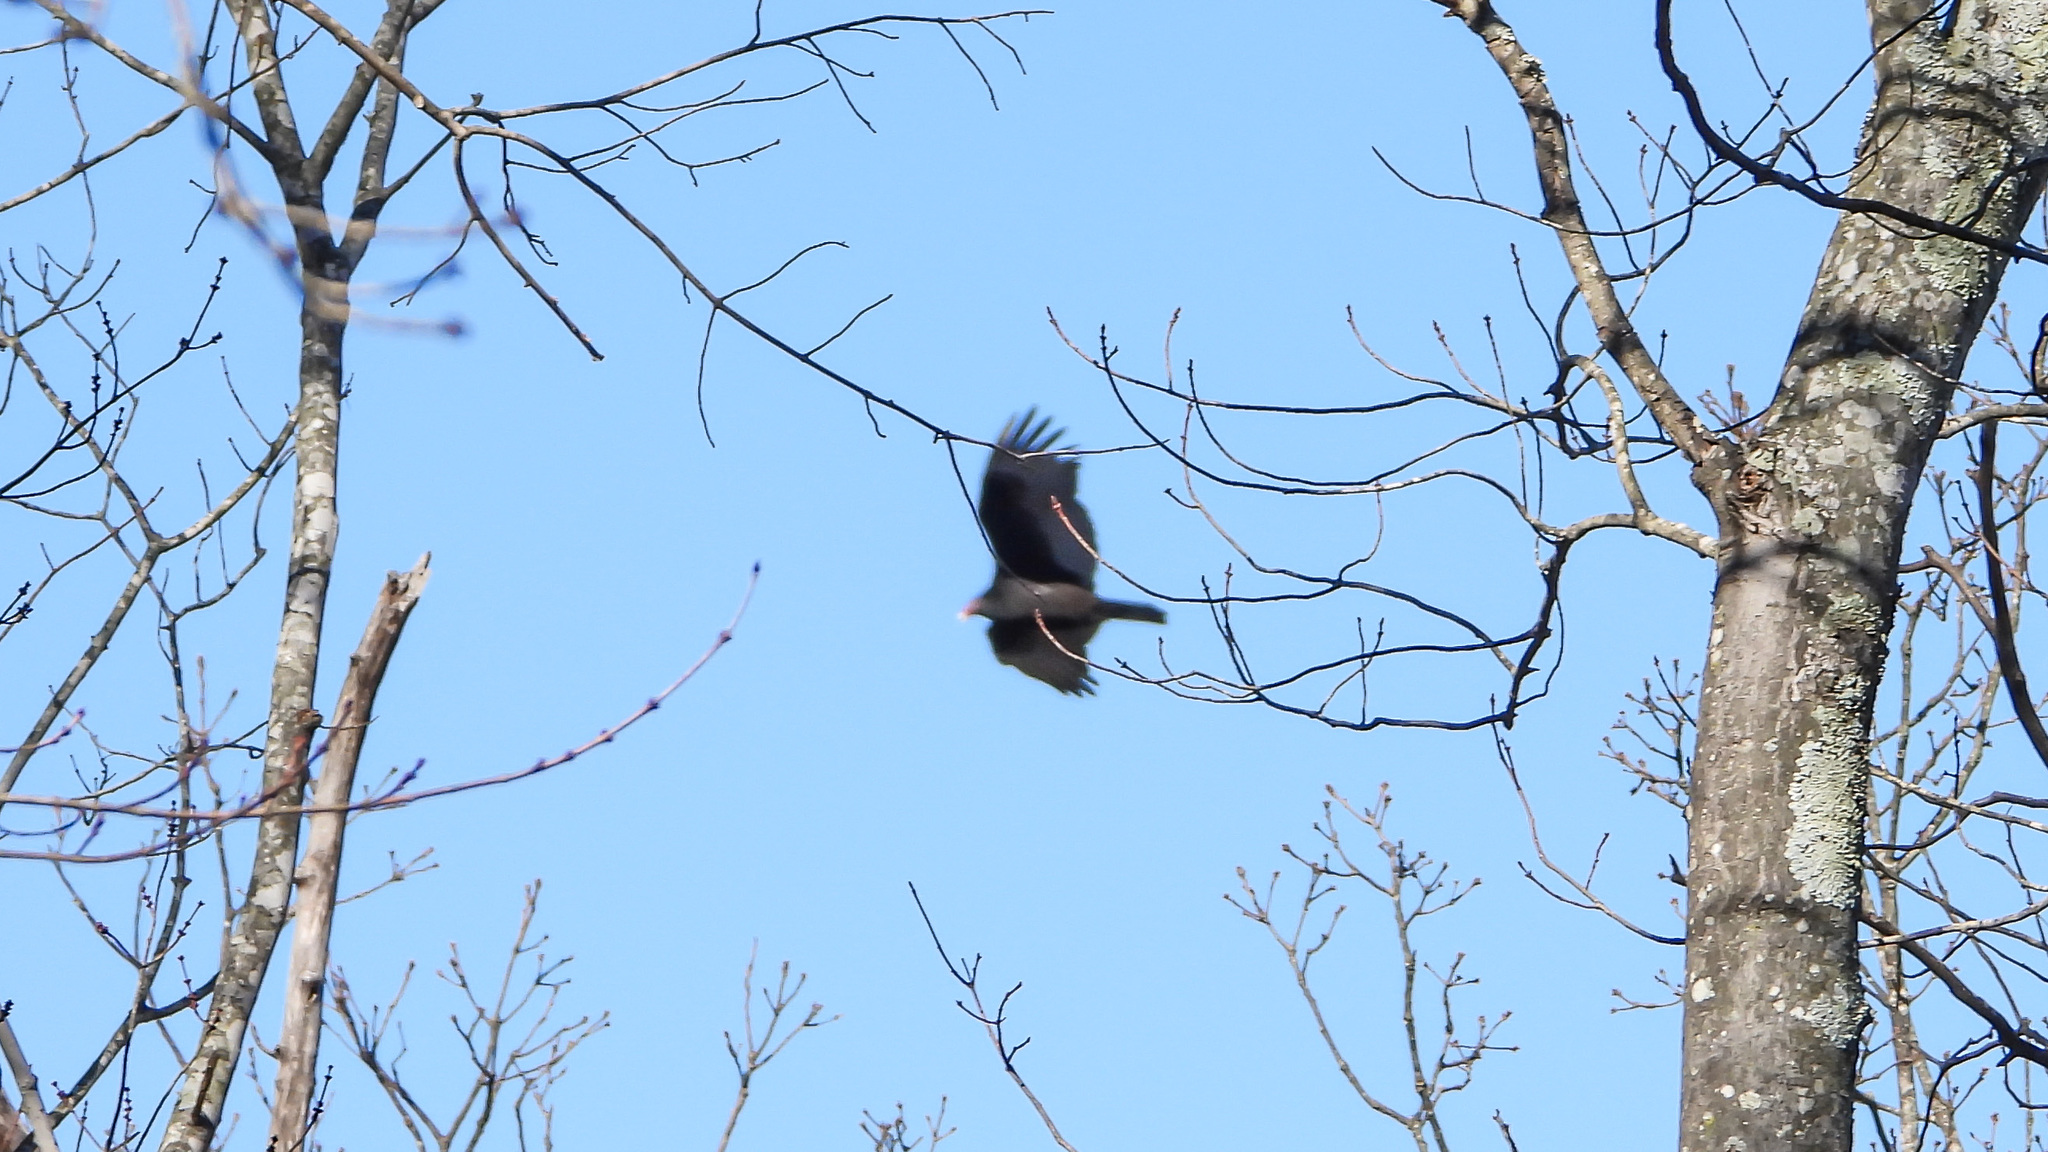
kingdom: Animalia
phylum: Chordata
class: Aves
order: Accipitriformes
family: Cathartidae
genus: Cathartes
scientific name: Cathartes aura
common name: Turkey vulture
